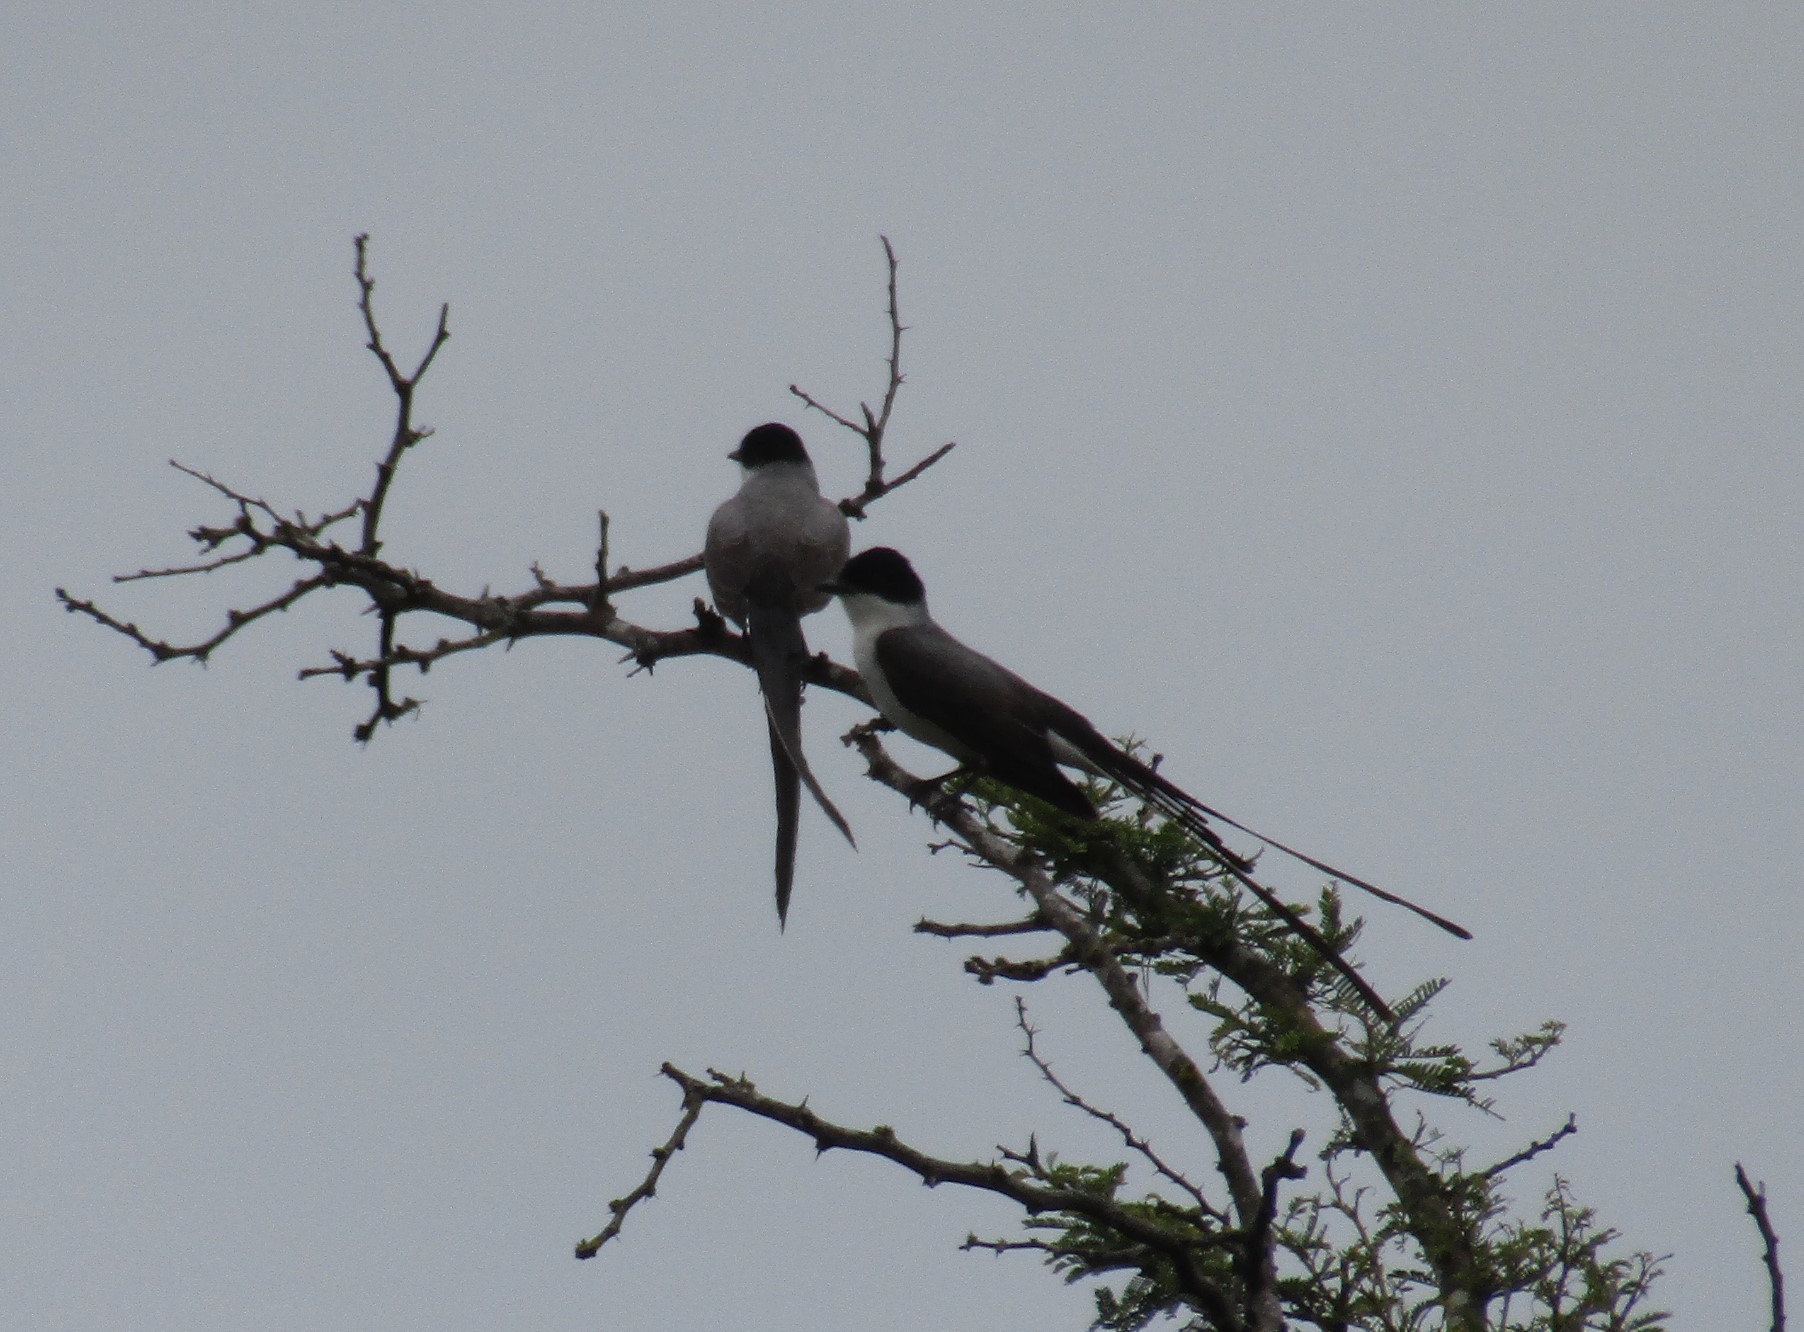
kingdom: Animalia
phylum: Chordata
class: Aves
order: Passeriformes
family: Tyrannidae
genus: Tyrannus
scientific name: Tyrannus savana
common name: Fork-tailed flycatcher
